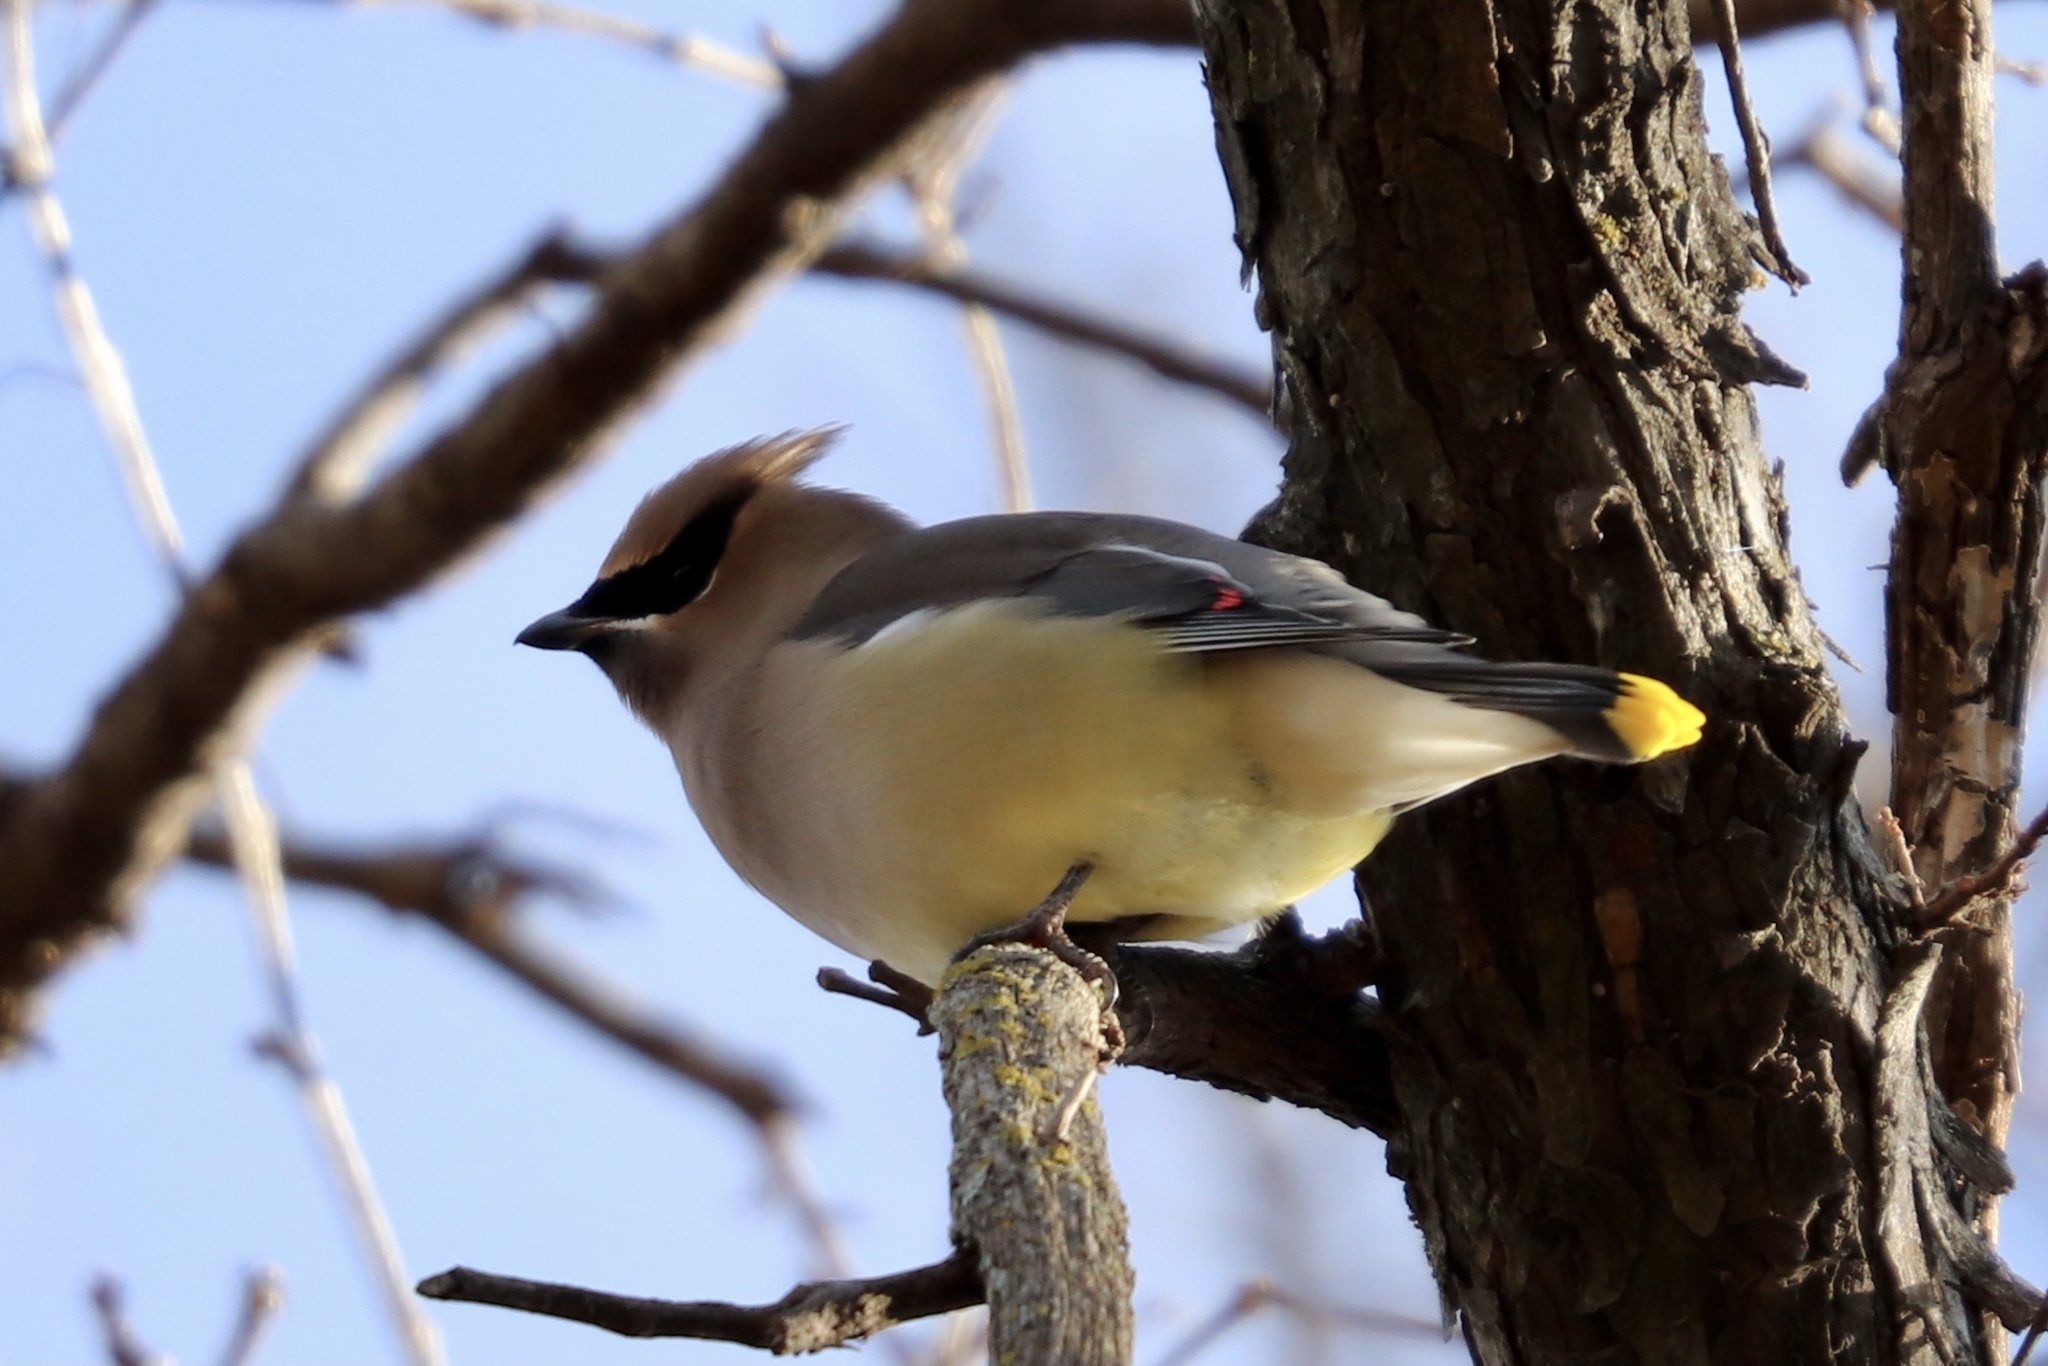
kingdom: Animalia
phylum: Chordata
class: Aves
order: Passeriformes
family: Bombycillidae
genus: Bombycilla
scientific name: Bombycilla cedrorum
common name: Cedar waxwing
